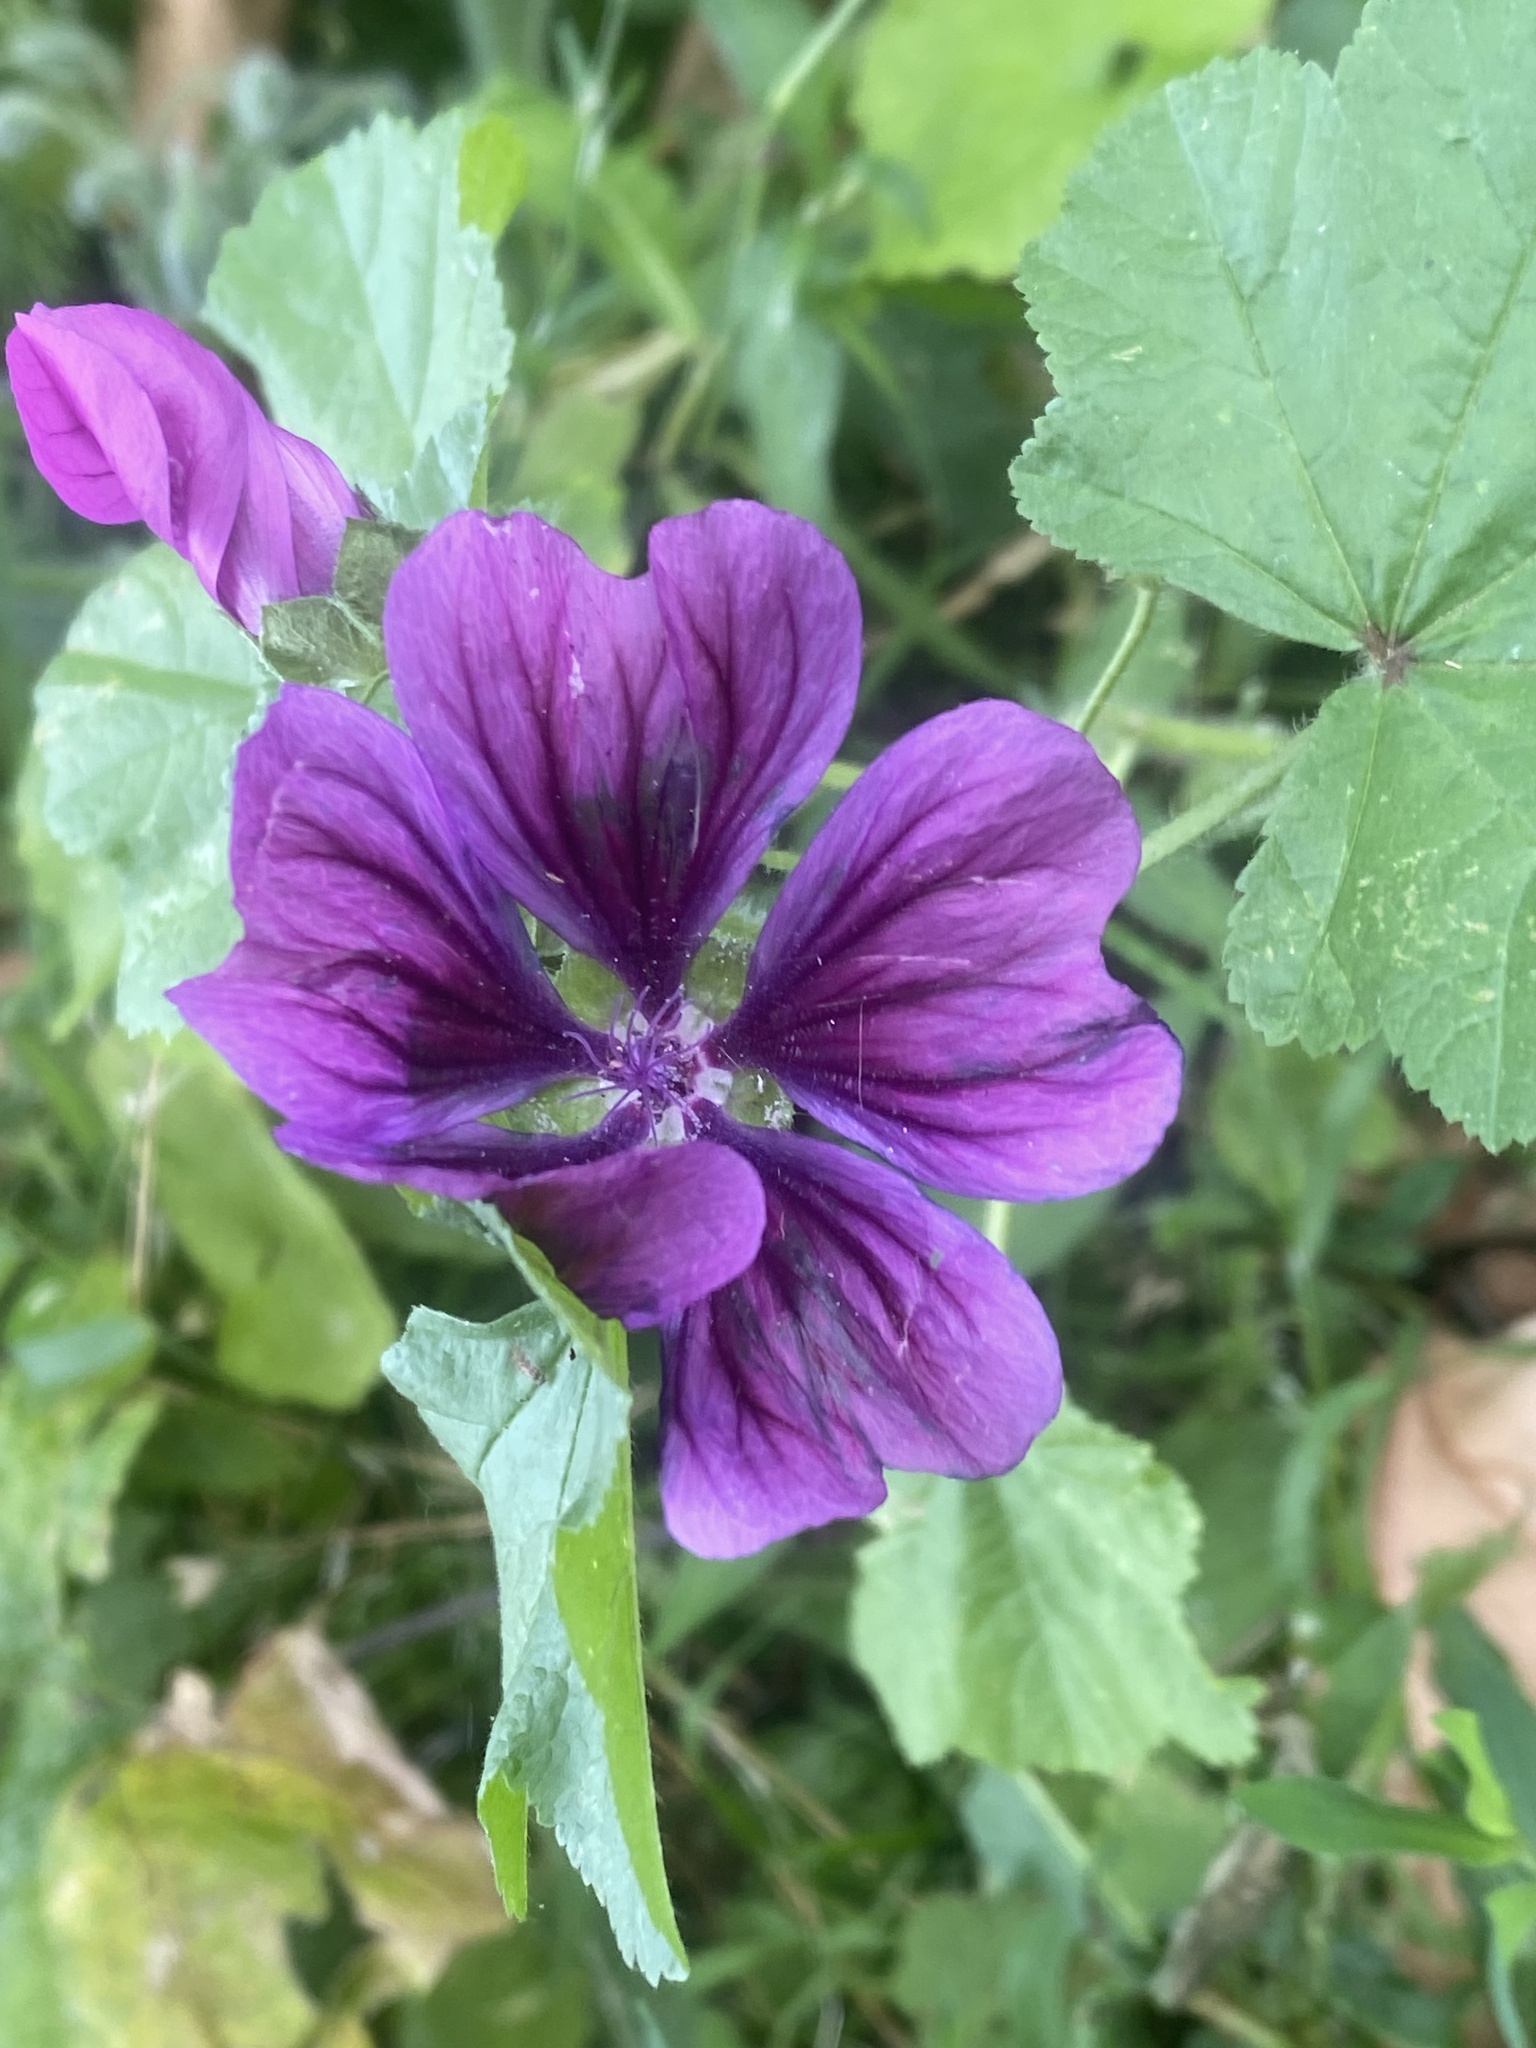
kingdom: Plantae
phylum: Tracheophyta
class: Magnoliopsida
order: Malvales
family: Malvaceae
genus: Malva
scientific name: Malva sylvestris
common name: Common mallow
